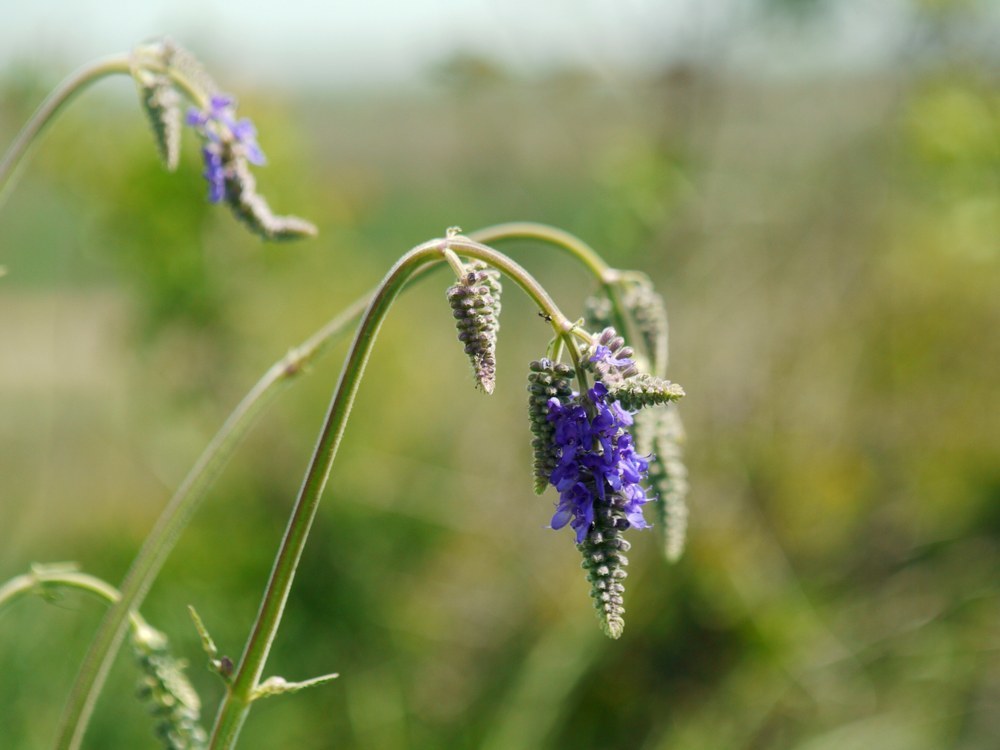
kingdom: Plantae
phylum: Tracheophyta
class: Magnoliopsida
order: Lamiales
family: Lamiaceae
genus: Salvia
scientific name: Salvia nutans
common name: Nodding sage
